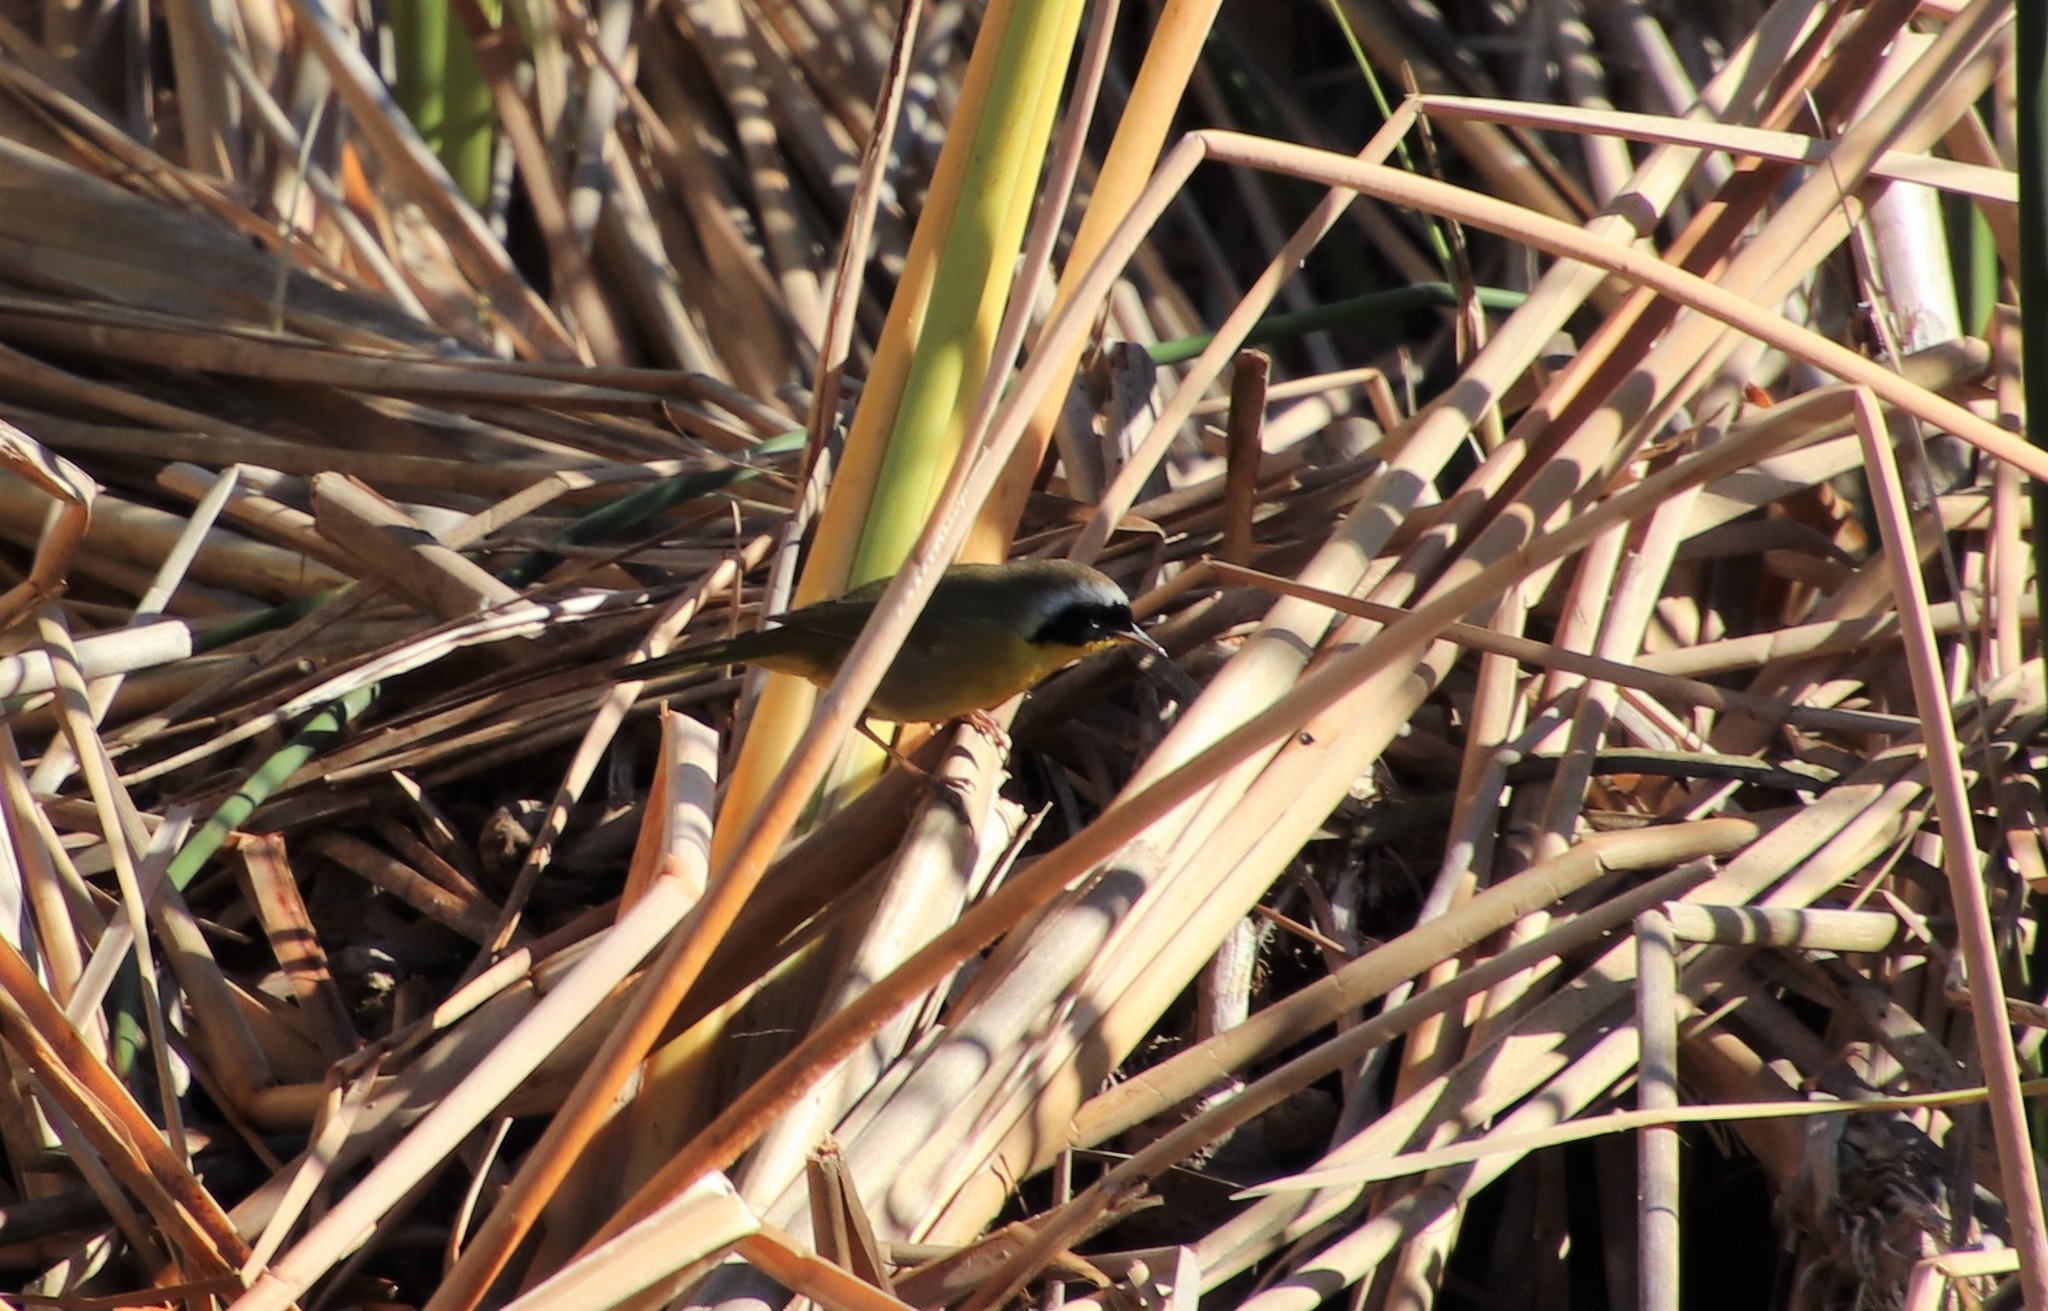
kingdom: Animalia
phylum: Chordata
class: Aves
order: Passeriformes
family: Parulidae
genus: Geothlypis
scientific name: Geothlypis trichas
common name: Common yellowthroat
